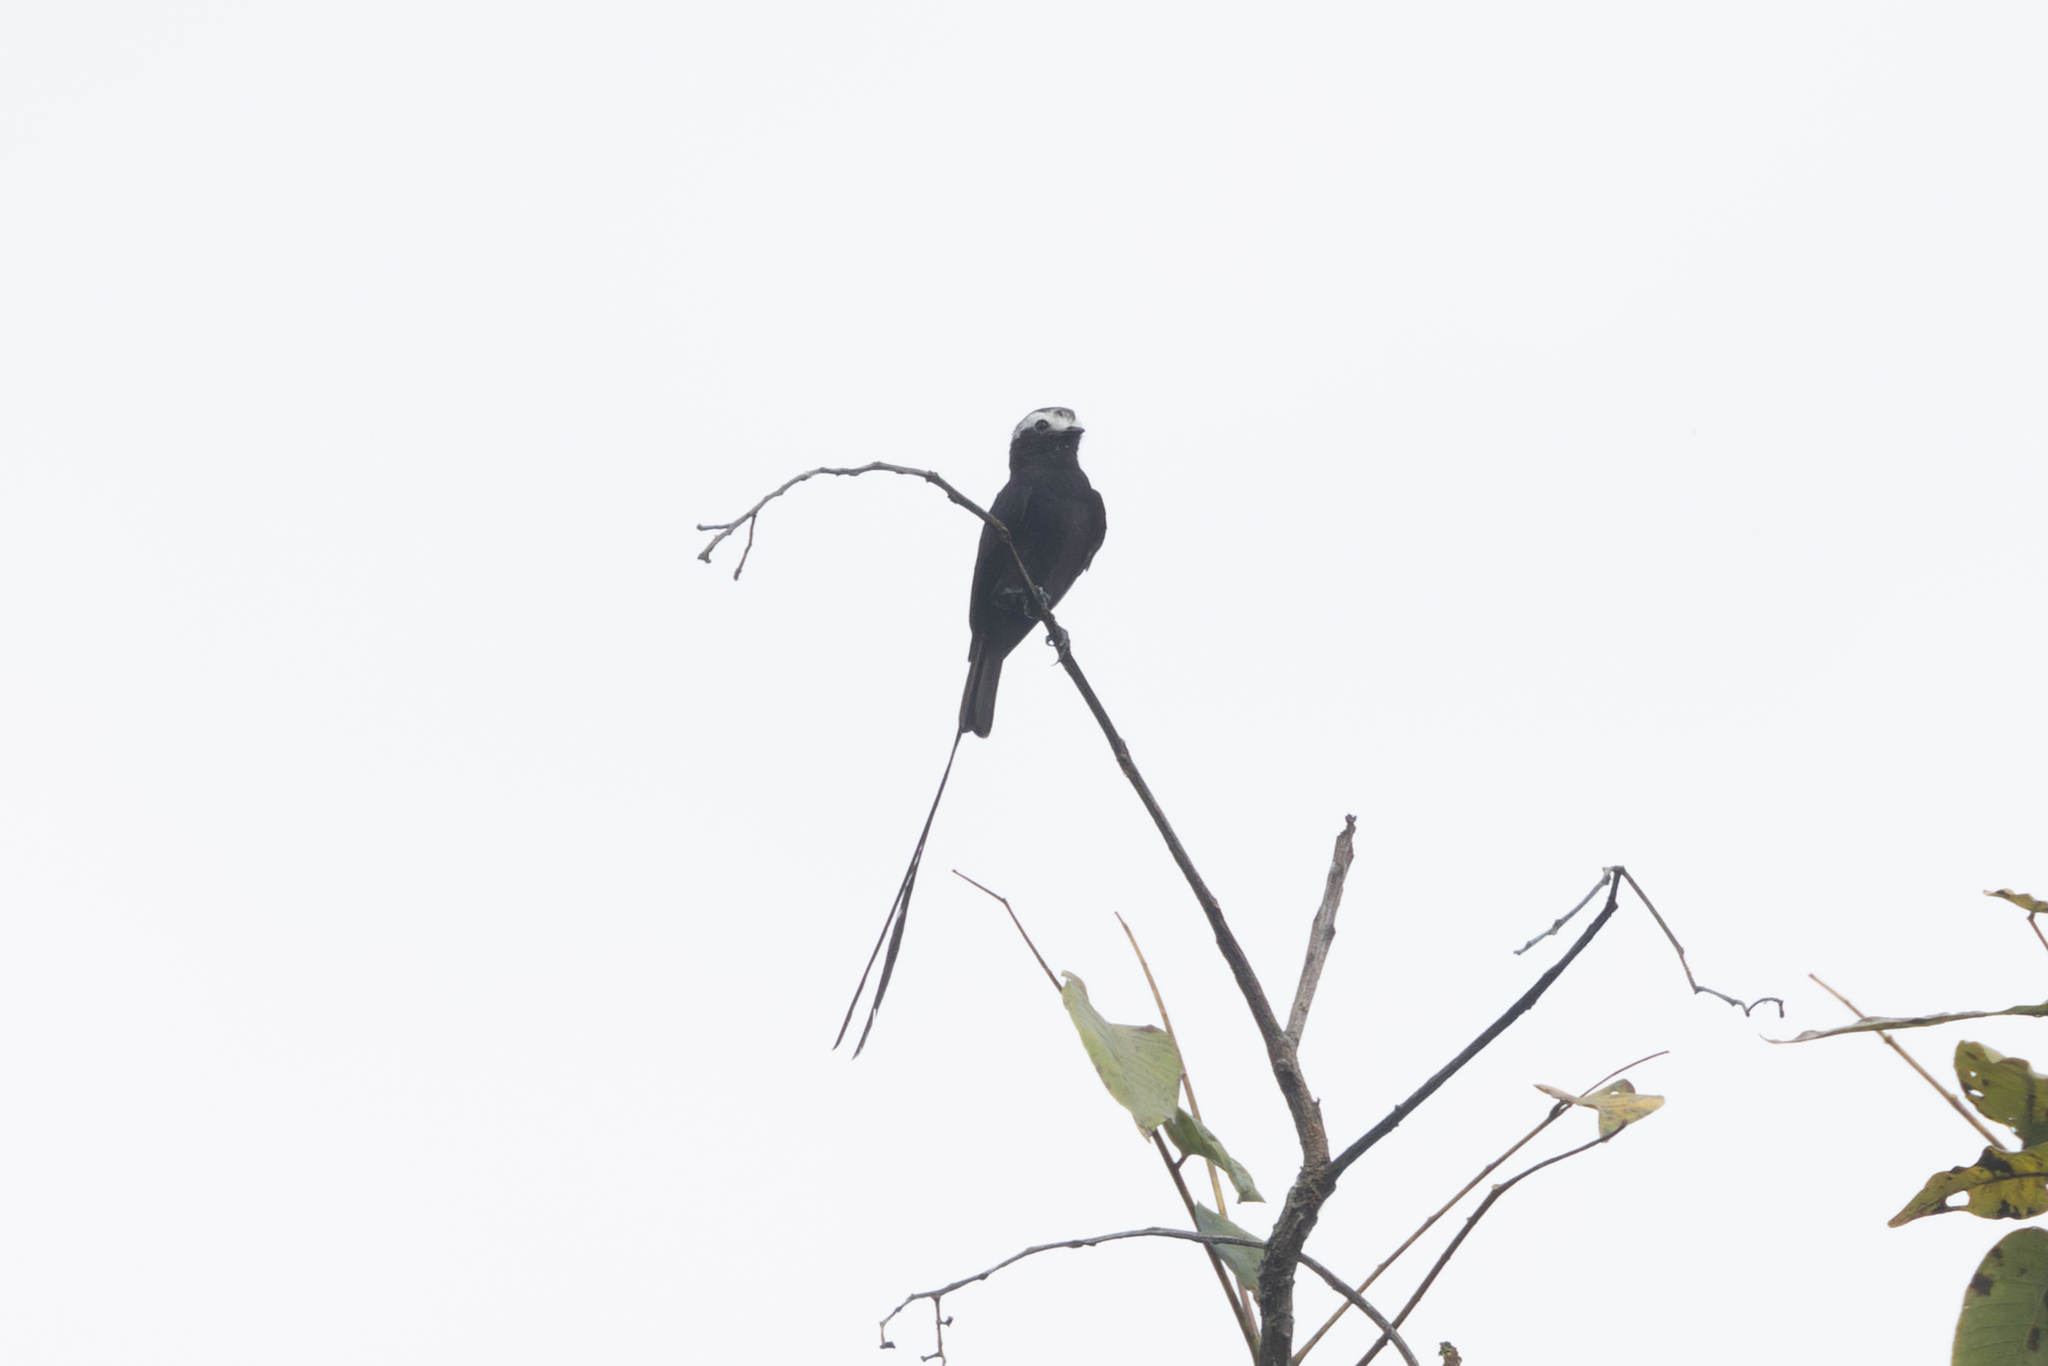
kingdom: Animalia
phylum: Chordata
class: Aves
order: Passeriformes
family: Tyrannidae
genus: Colonia
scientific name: Colonia colonus
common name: Long-tailed tyrant
